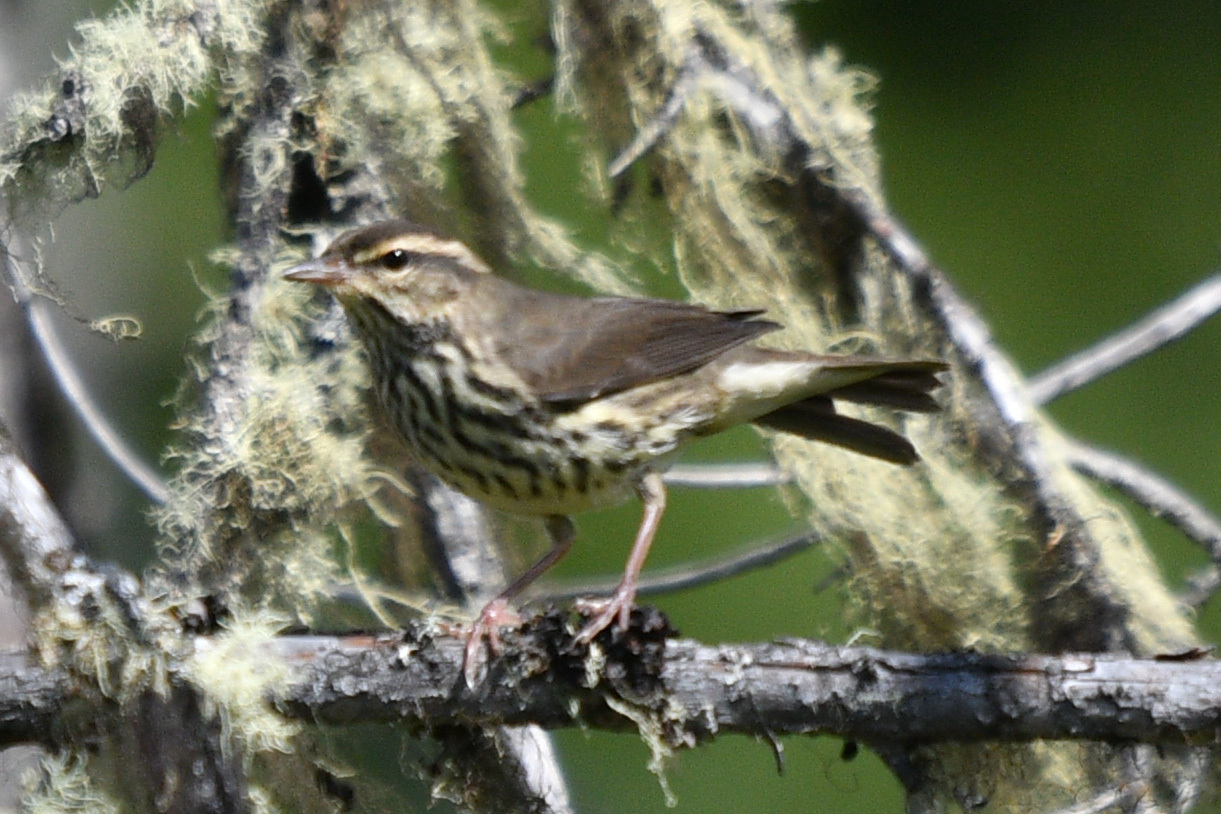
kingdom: Animalia
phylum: Chordata
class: Aves
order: Passeriformes
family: Parulidae
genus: Parkesia
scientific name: Parkesia noveboracensis
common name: Northern waterthrush
